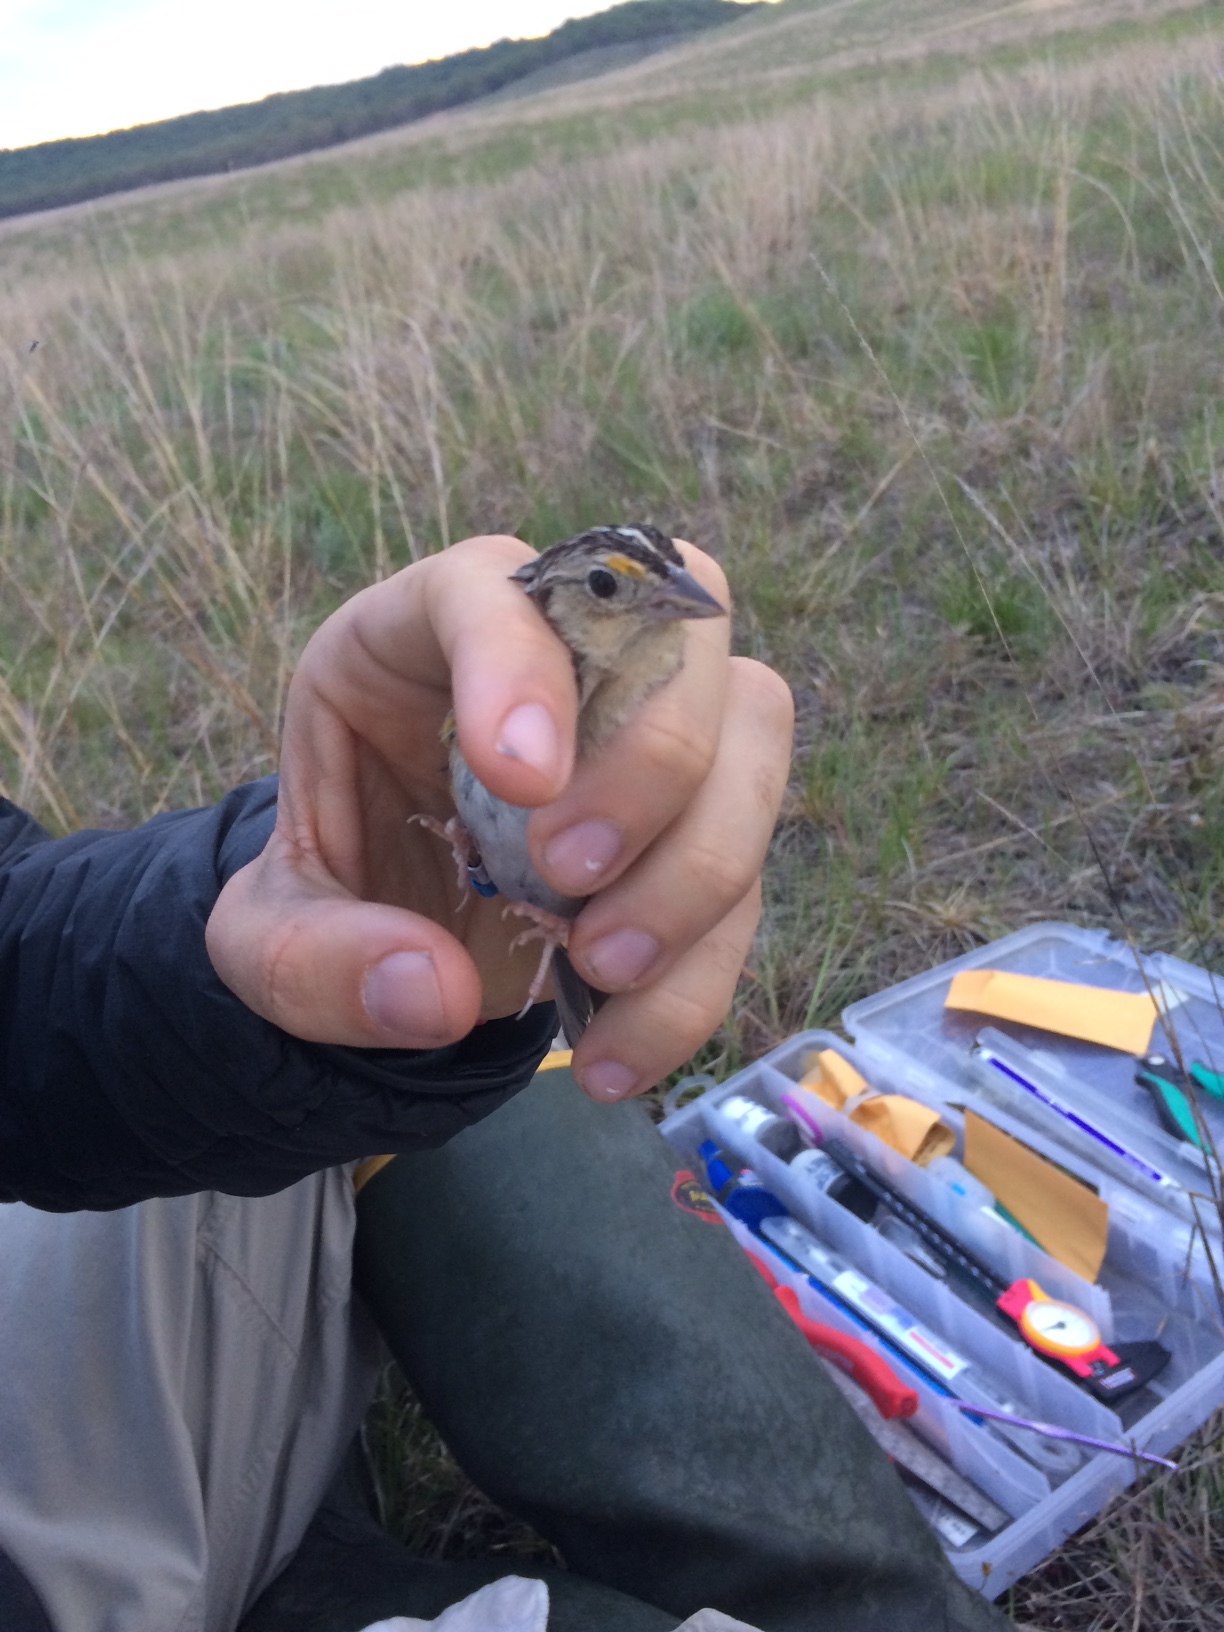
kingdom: Animalia
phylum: Chordata
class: Aves
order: Passeriformes
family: Passerellidae
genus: Ammodramus
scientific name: Ammodramus savannarum
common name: Grasshopper sparrow
